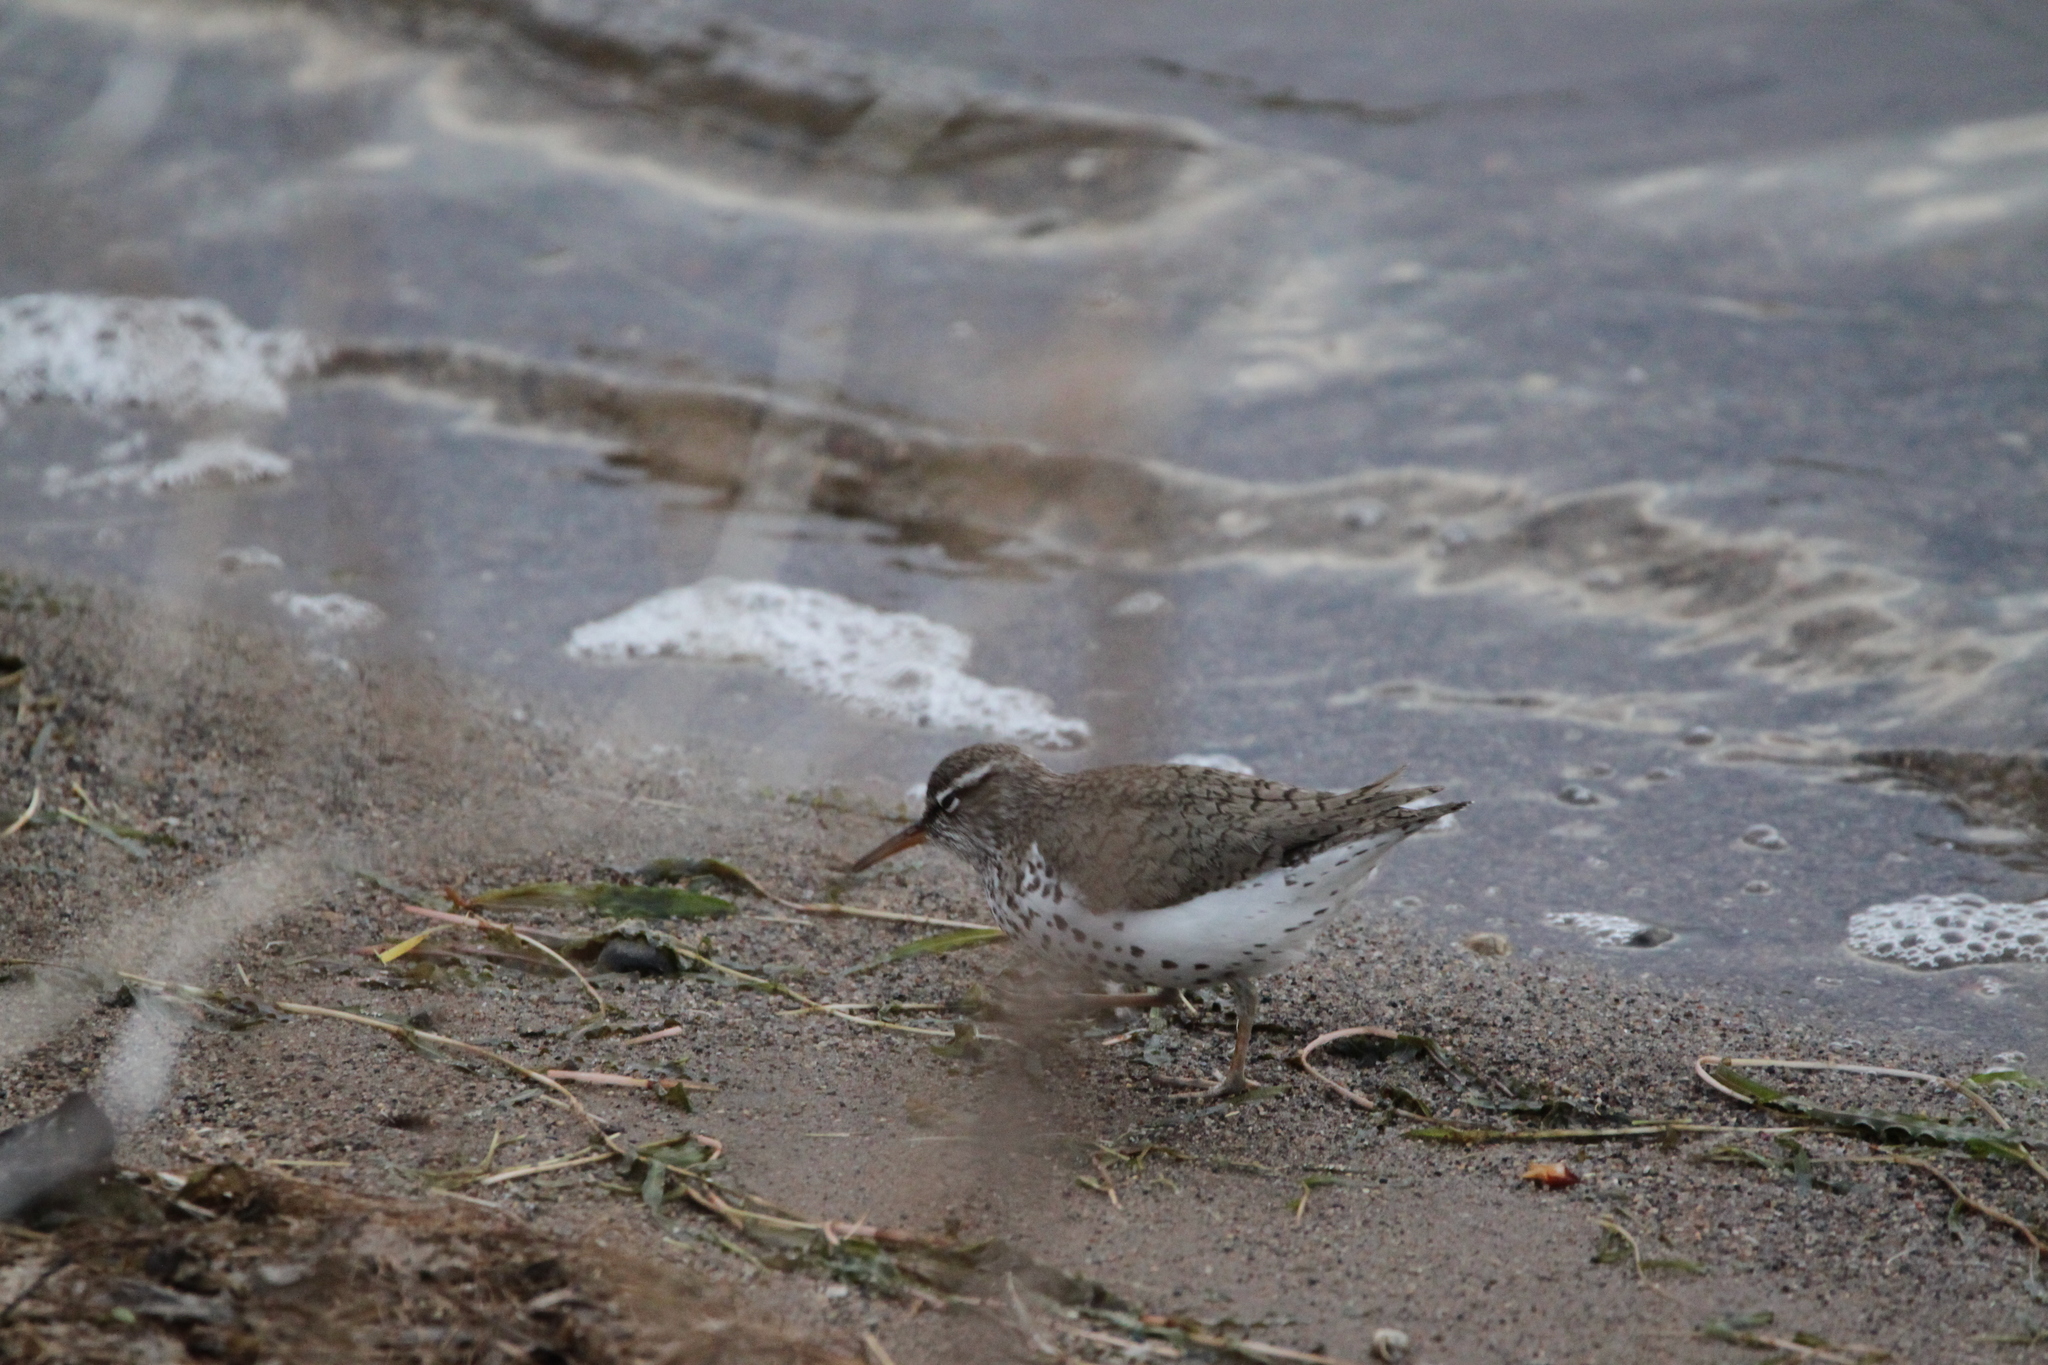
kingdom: Animalia
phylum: Chordata
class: Aves
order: Charadriiformes
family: Scolopacidae
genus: Actitis
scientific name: Actitis macularius
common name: Spotted sandpiper
